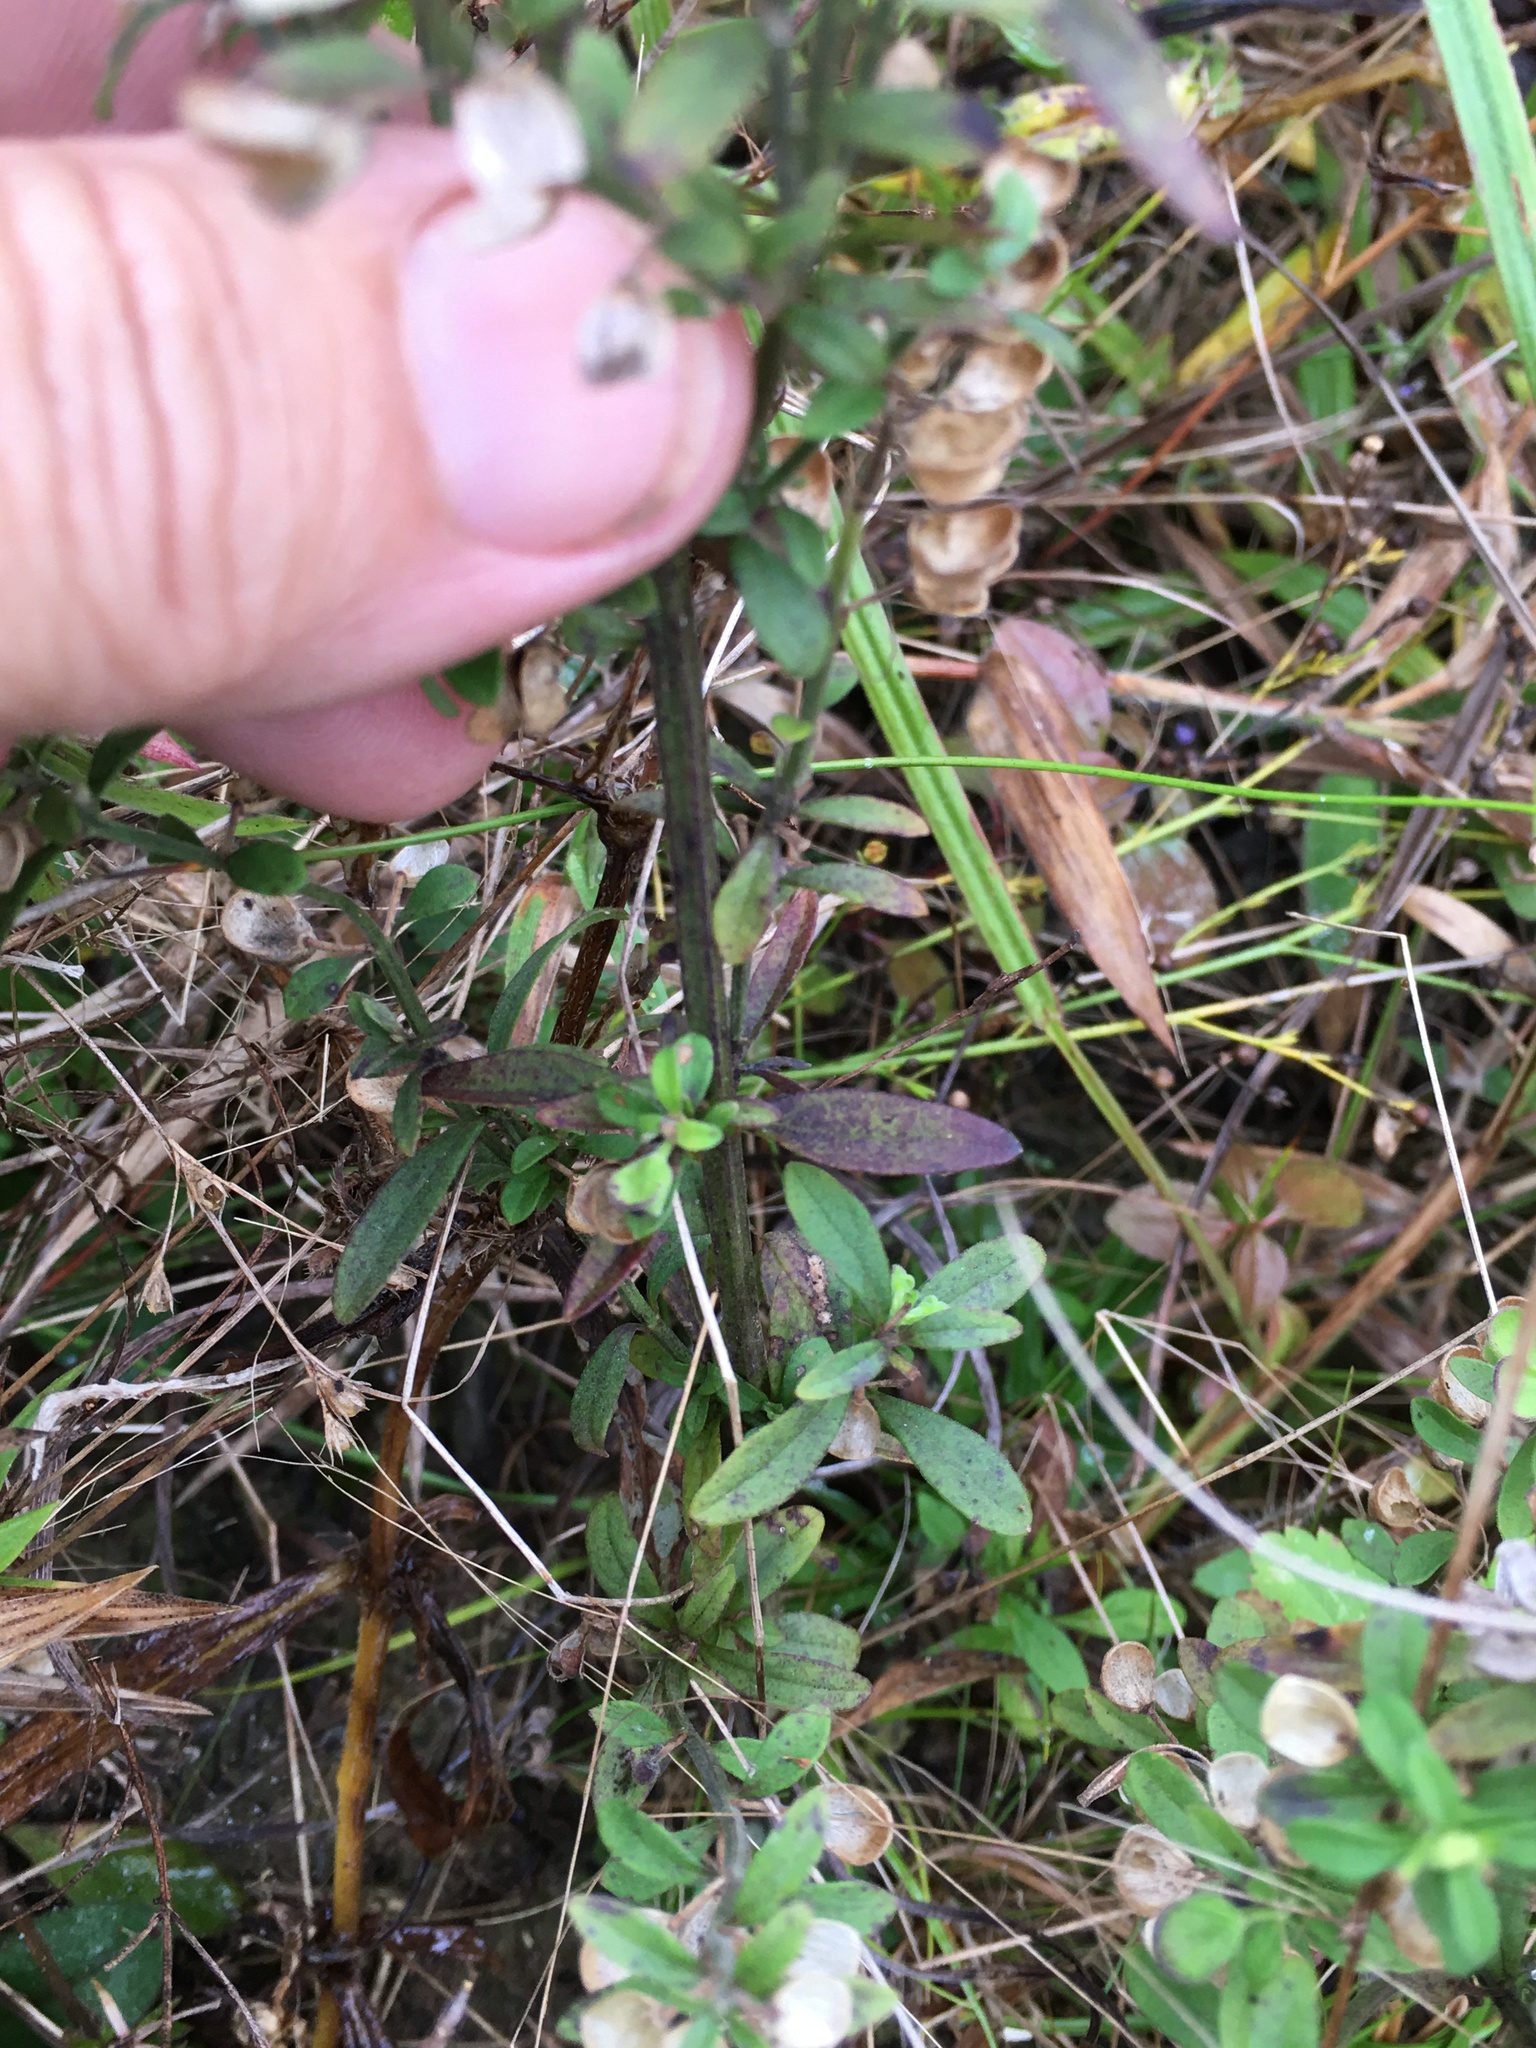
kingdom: Plantae
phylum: Tracheophyta
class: Magnoliopsida
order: Lamiales
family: Lamiaceae
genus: Scutellaria
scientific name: Scutellaria integrifolia
